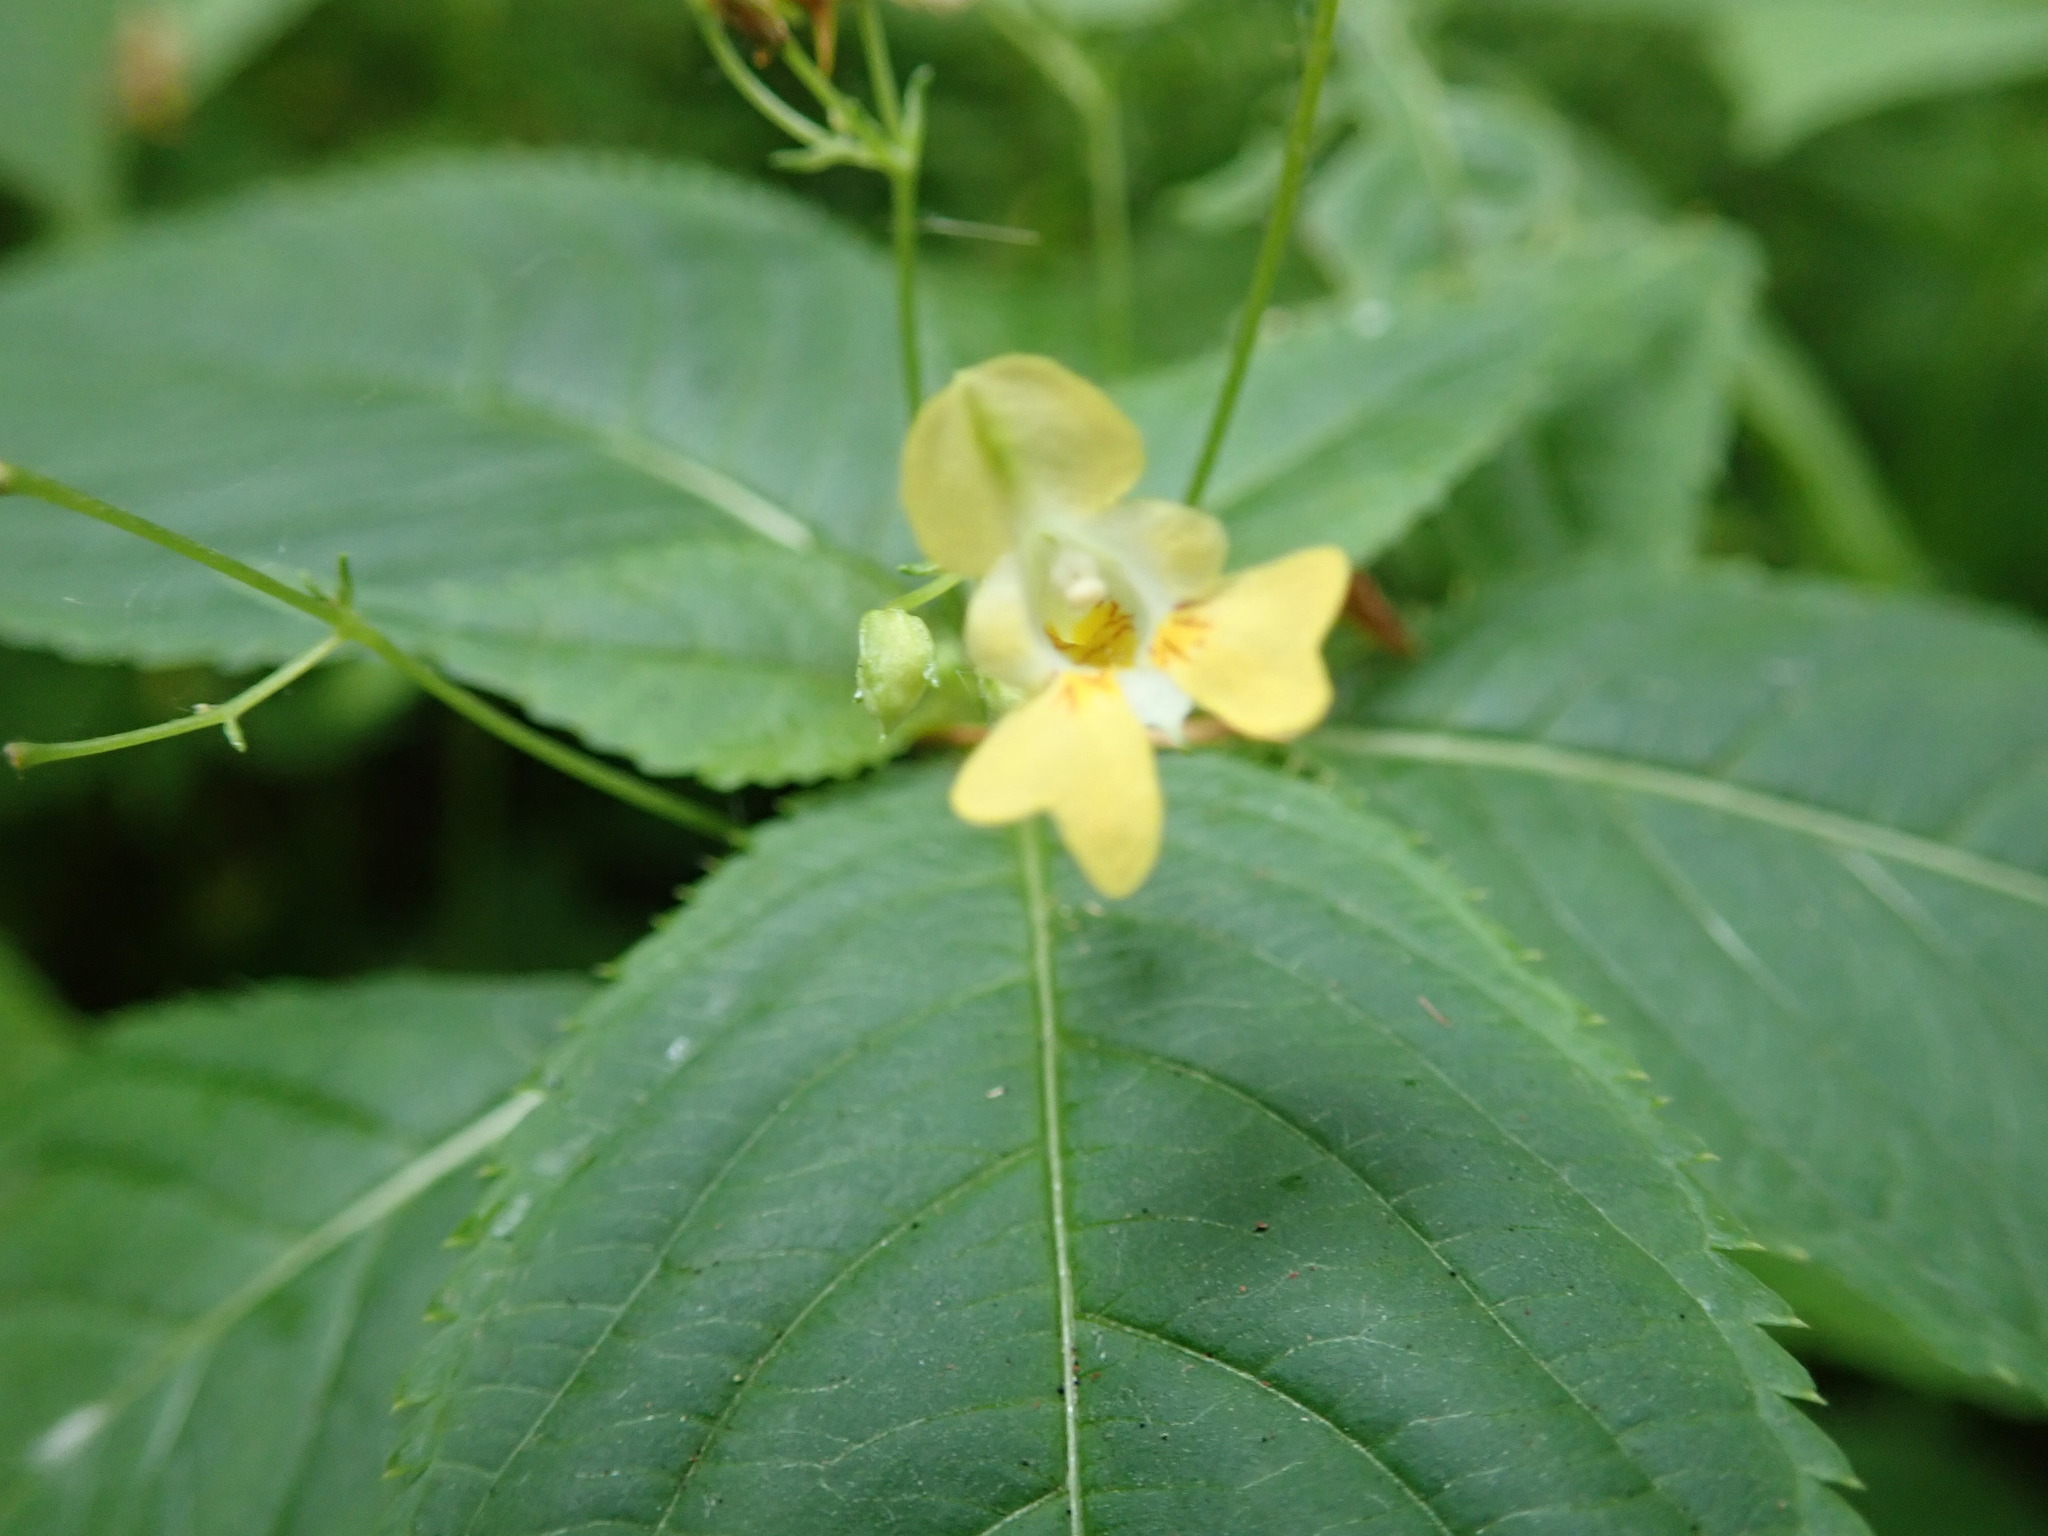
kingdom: Plantae
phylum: Tracheophyta
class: Magnoliopsida
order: Ericales
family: Balsaminaceae
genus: Impatiens
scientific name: Impatiens parviflora
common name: Small balsam
